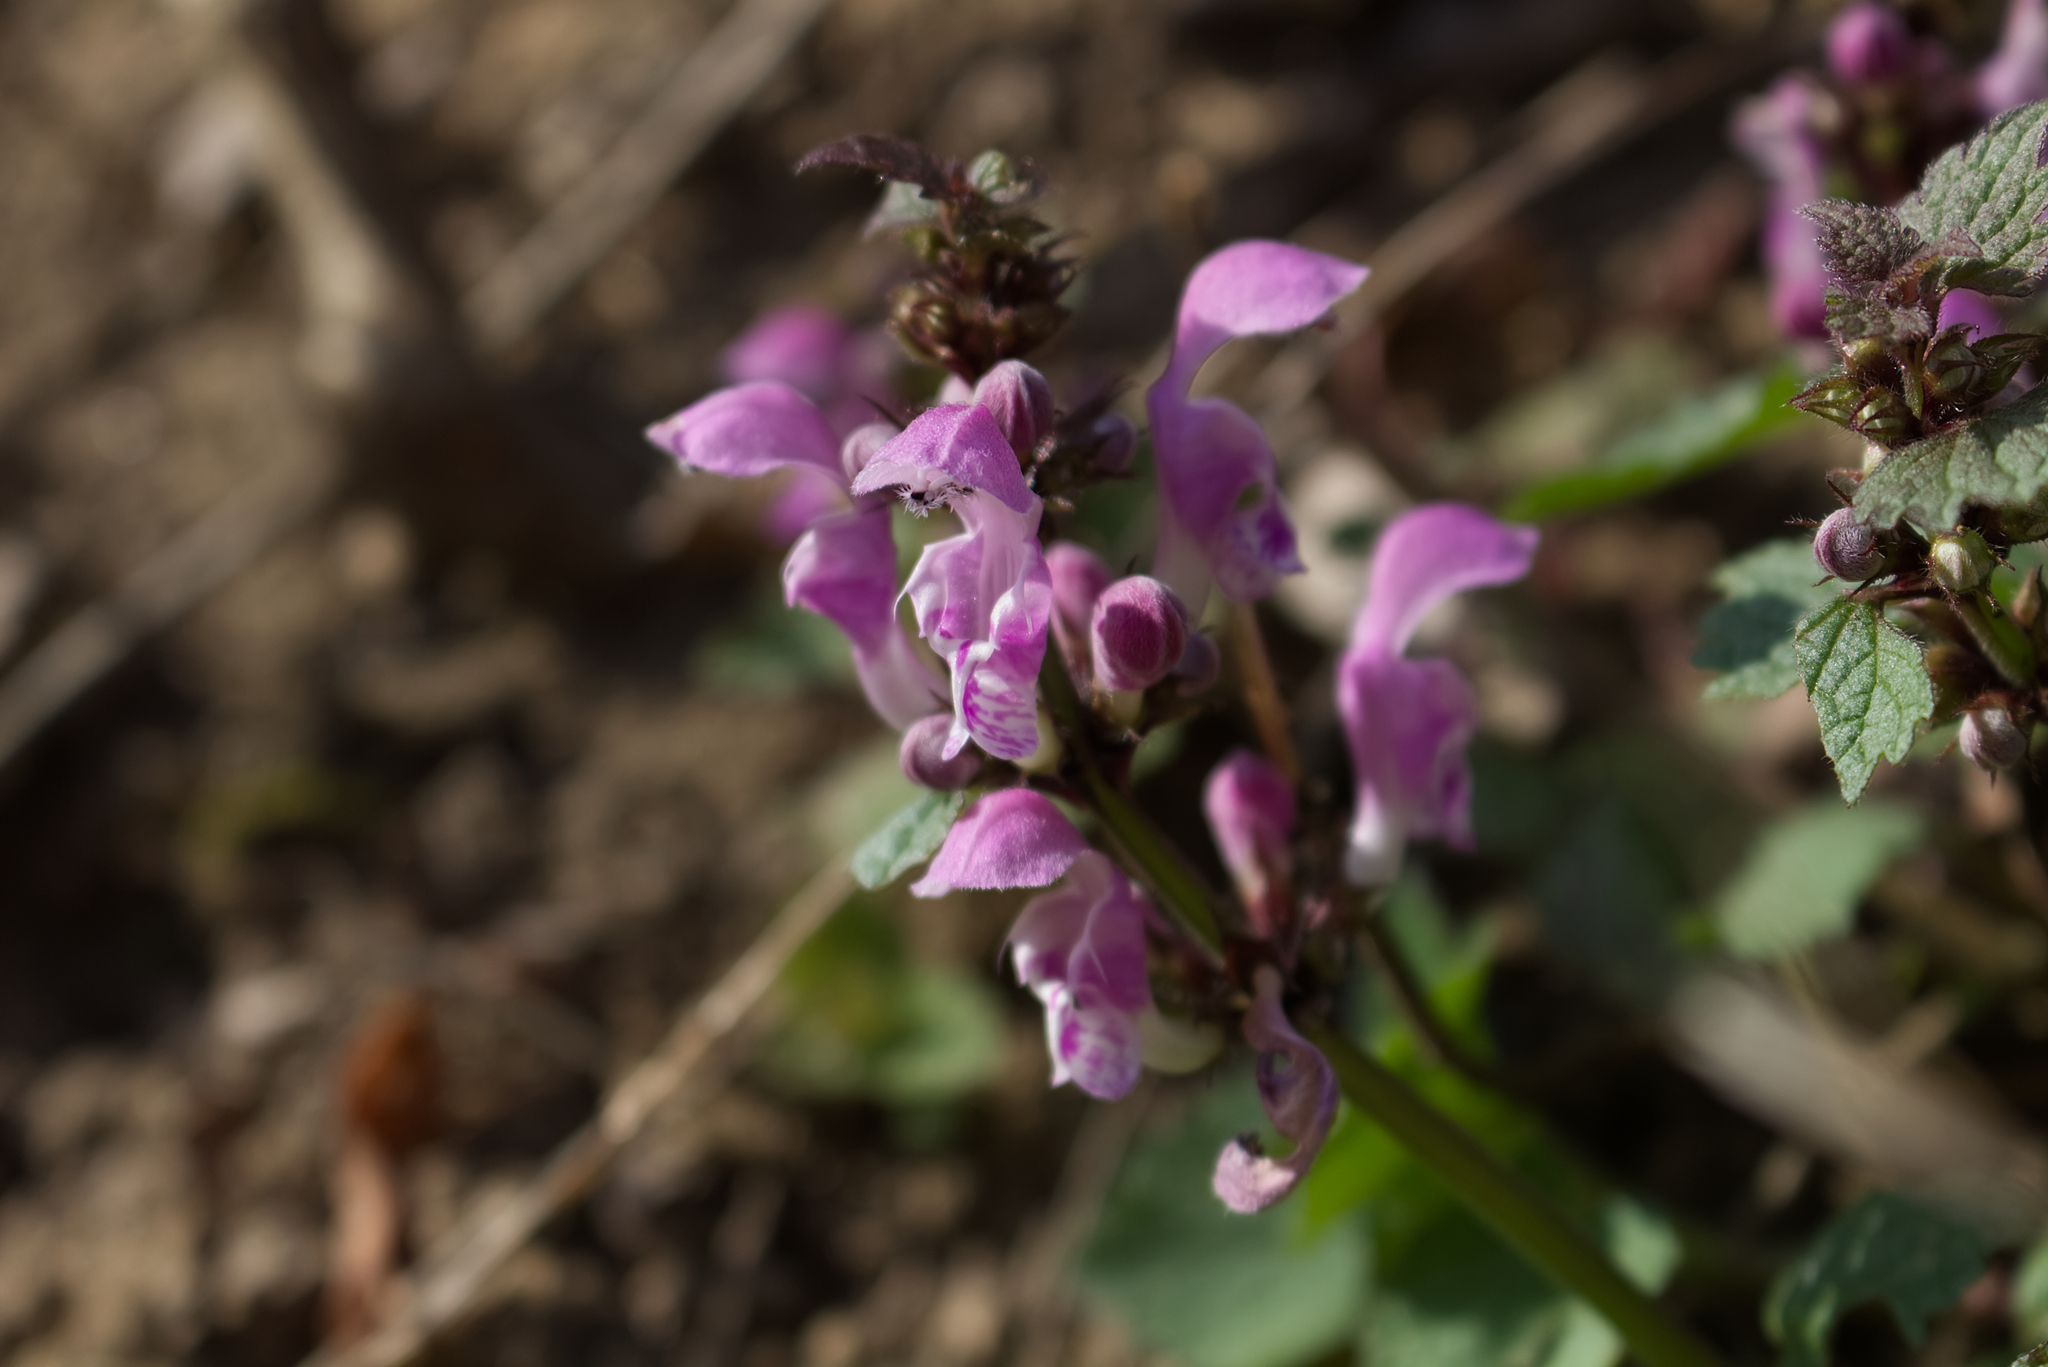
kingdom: Plantae
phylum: Tracheophyta
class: Magnoliopsida
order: Lamiales
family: Lamiaceae
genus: Lamium
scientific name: Lamium maculatum
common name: Spotted dead-nettle
